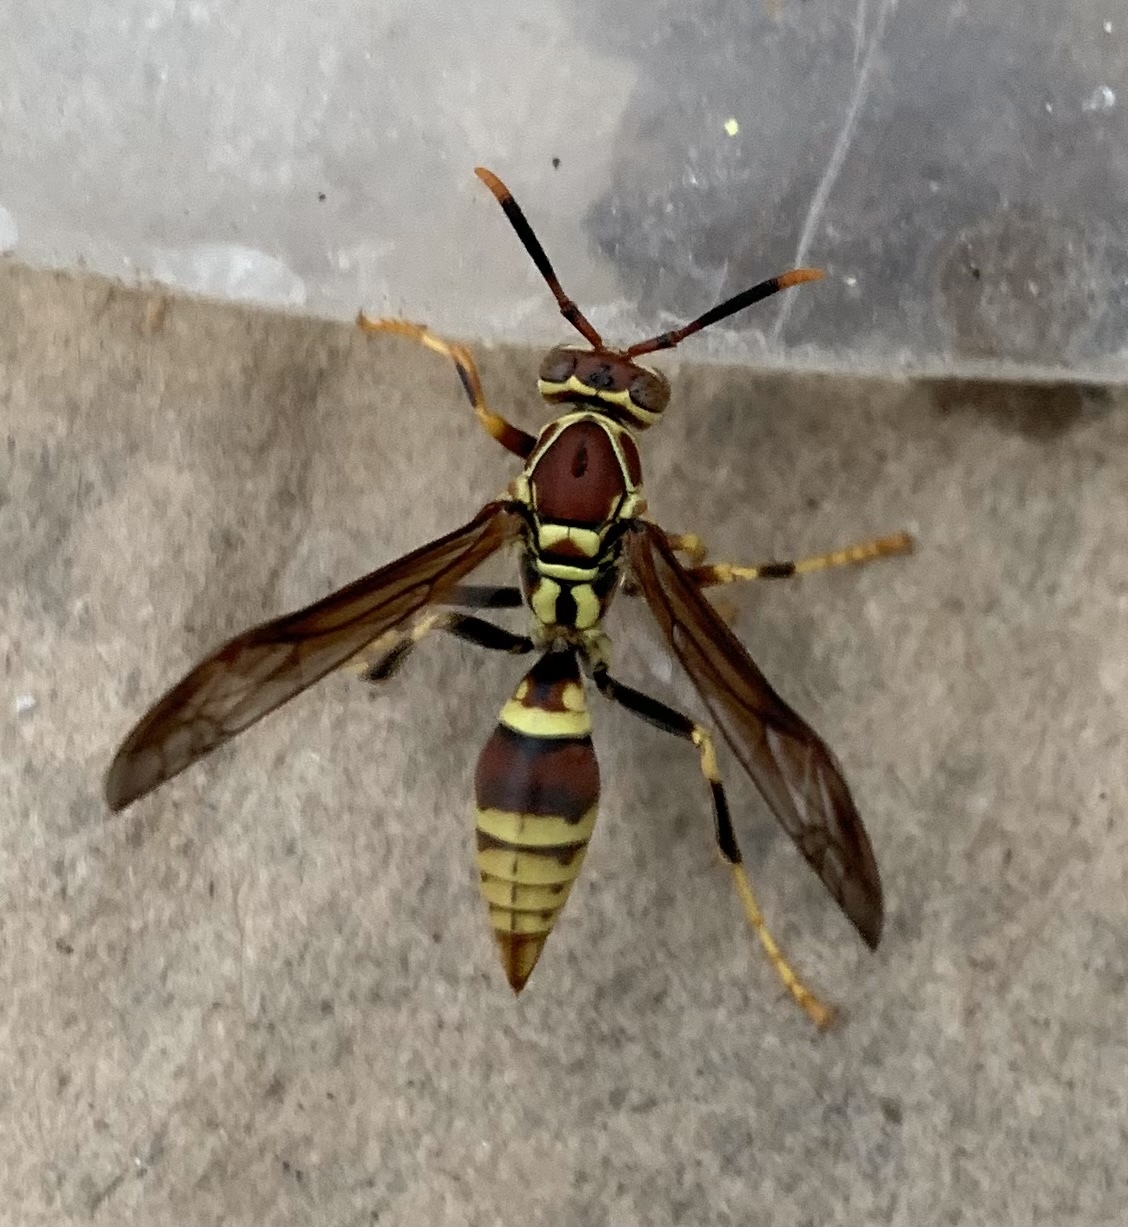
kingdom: Animalia
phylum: Arthropoda
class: Insecta
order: Hymenoptera
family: Eumenidae
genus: Polistes
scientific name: Polistes exclamans
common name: Paper wasp
